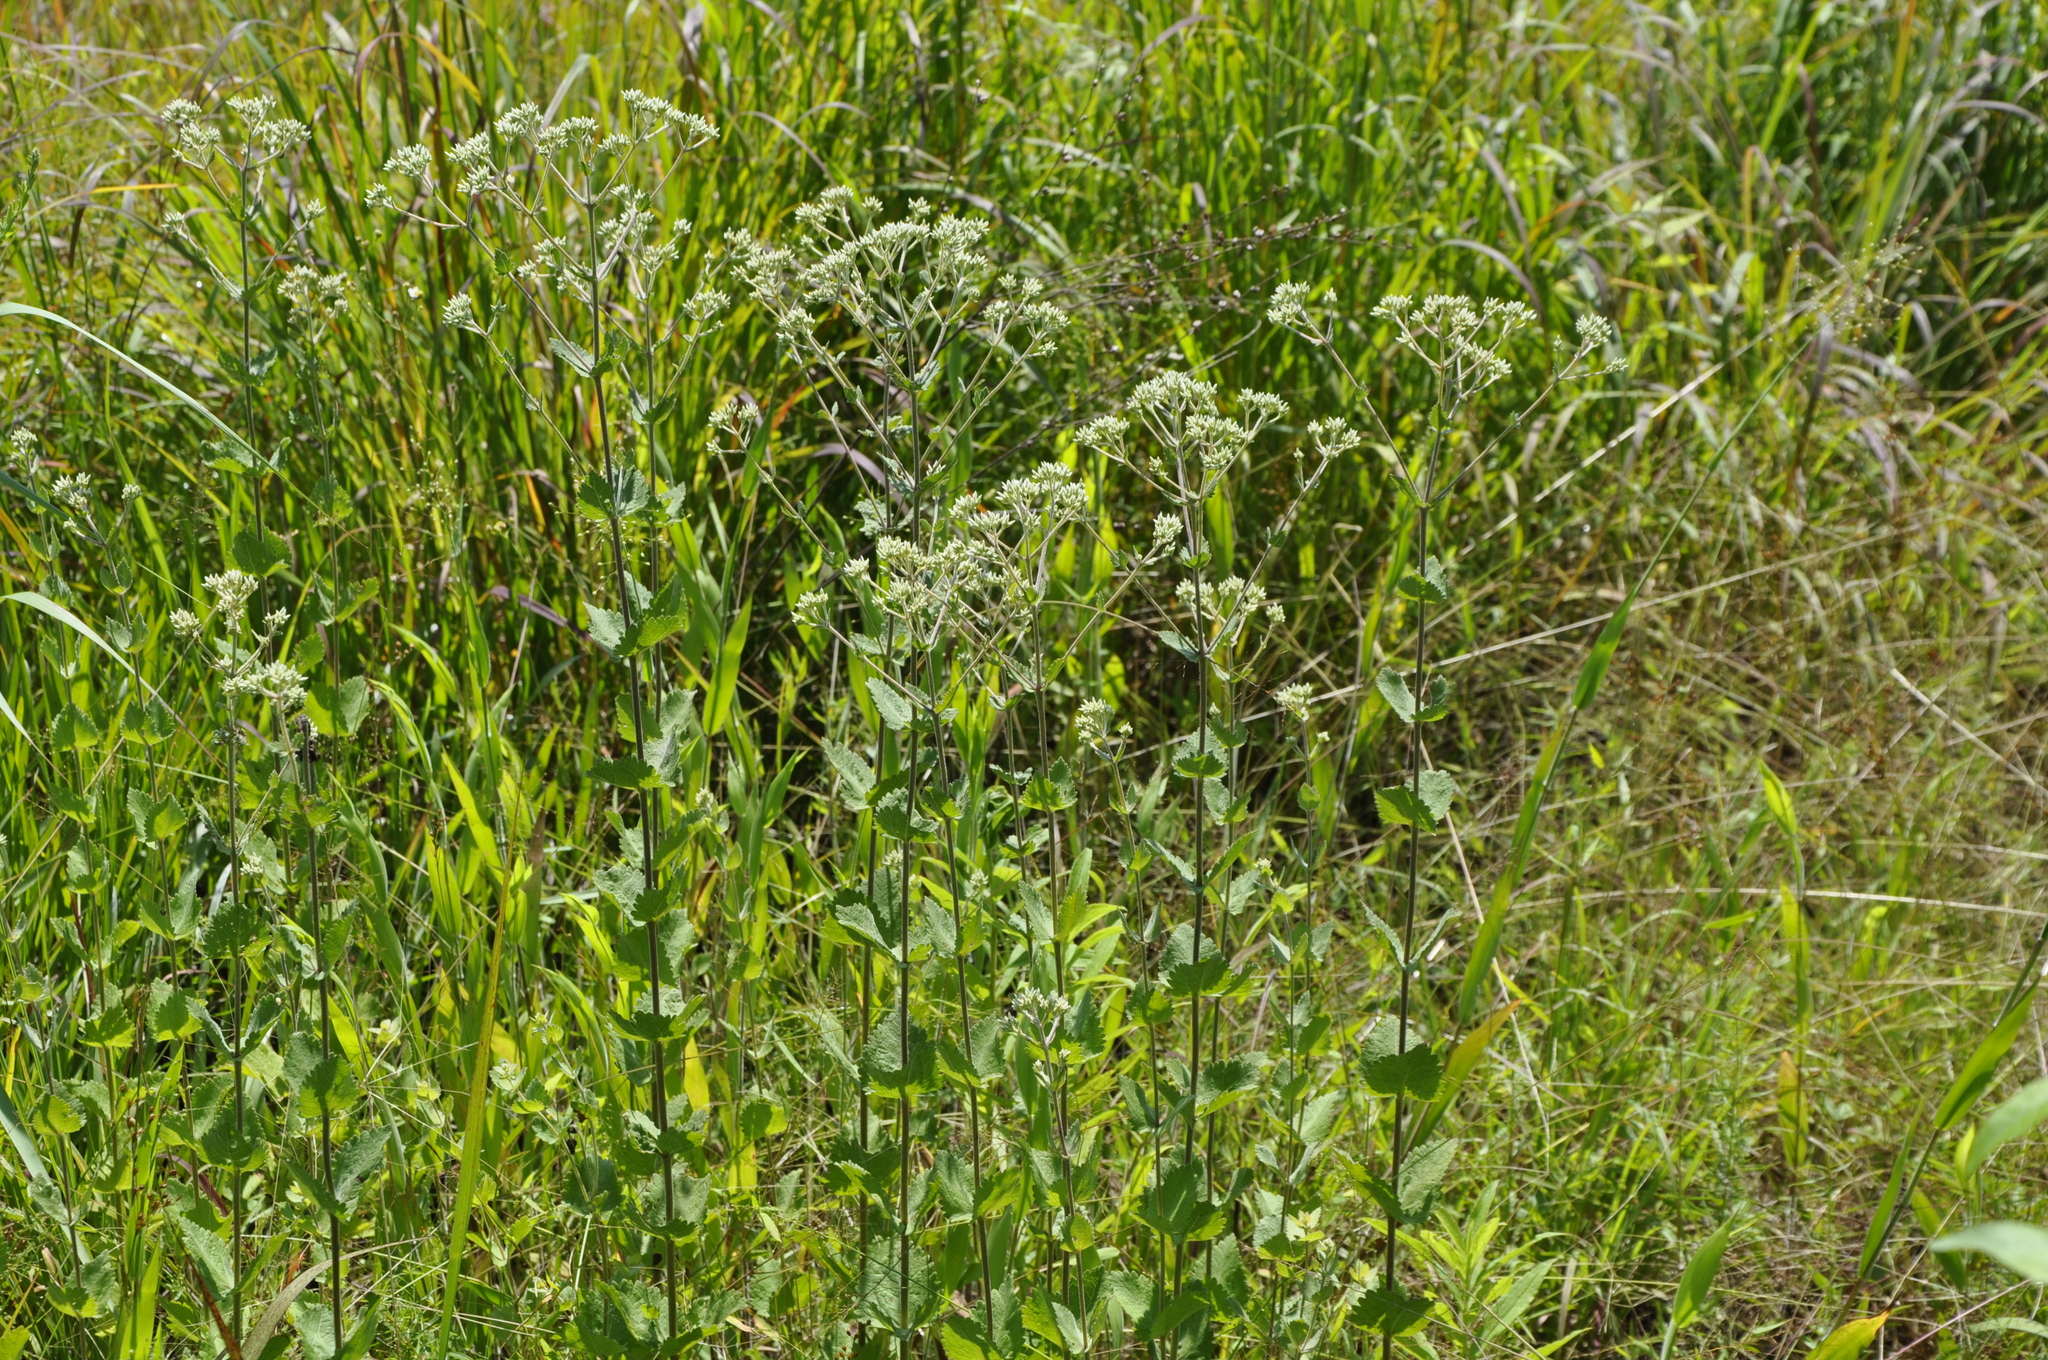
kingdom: Plantae
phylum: Tracheophyta
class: Magnoliopsida
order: Asterales
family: Asteraceae
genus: Eupatorium
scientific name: Eupatorium rotundifolium
